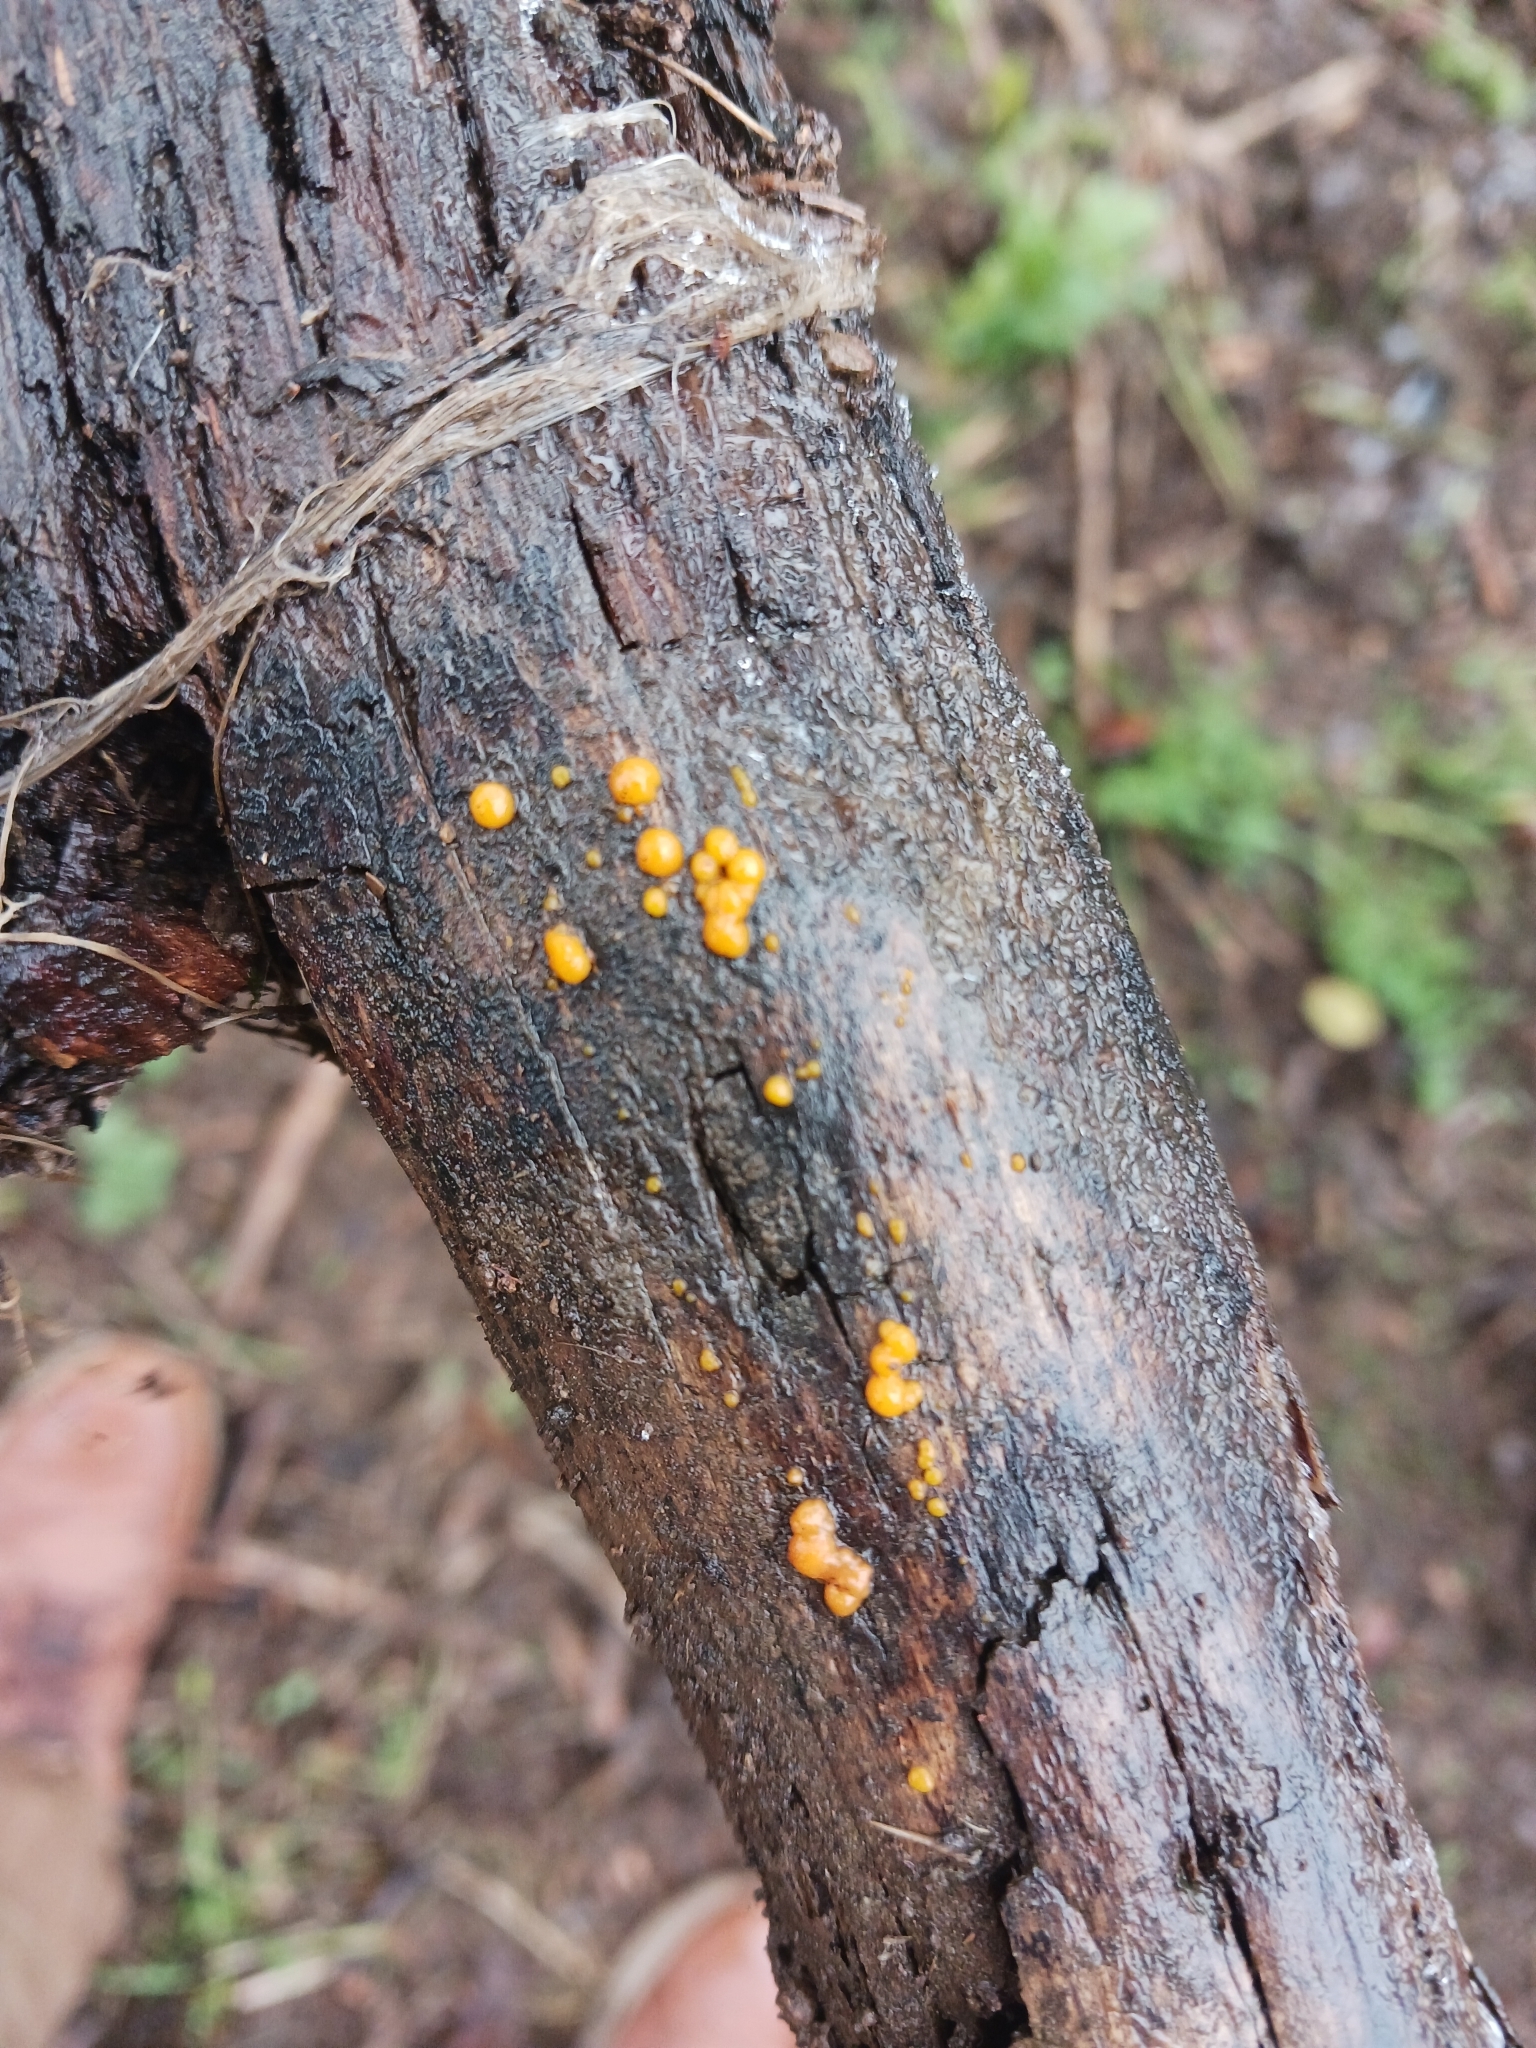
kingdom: Fungi
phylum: Basidiomycota
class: Dacrymycetes
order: Dacrymycetales
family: Dacrymycetaceae
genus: Dacrymyces
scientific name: Dacrymyces stillatus
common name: Common jelly spot
